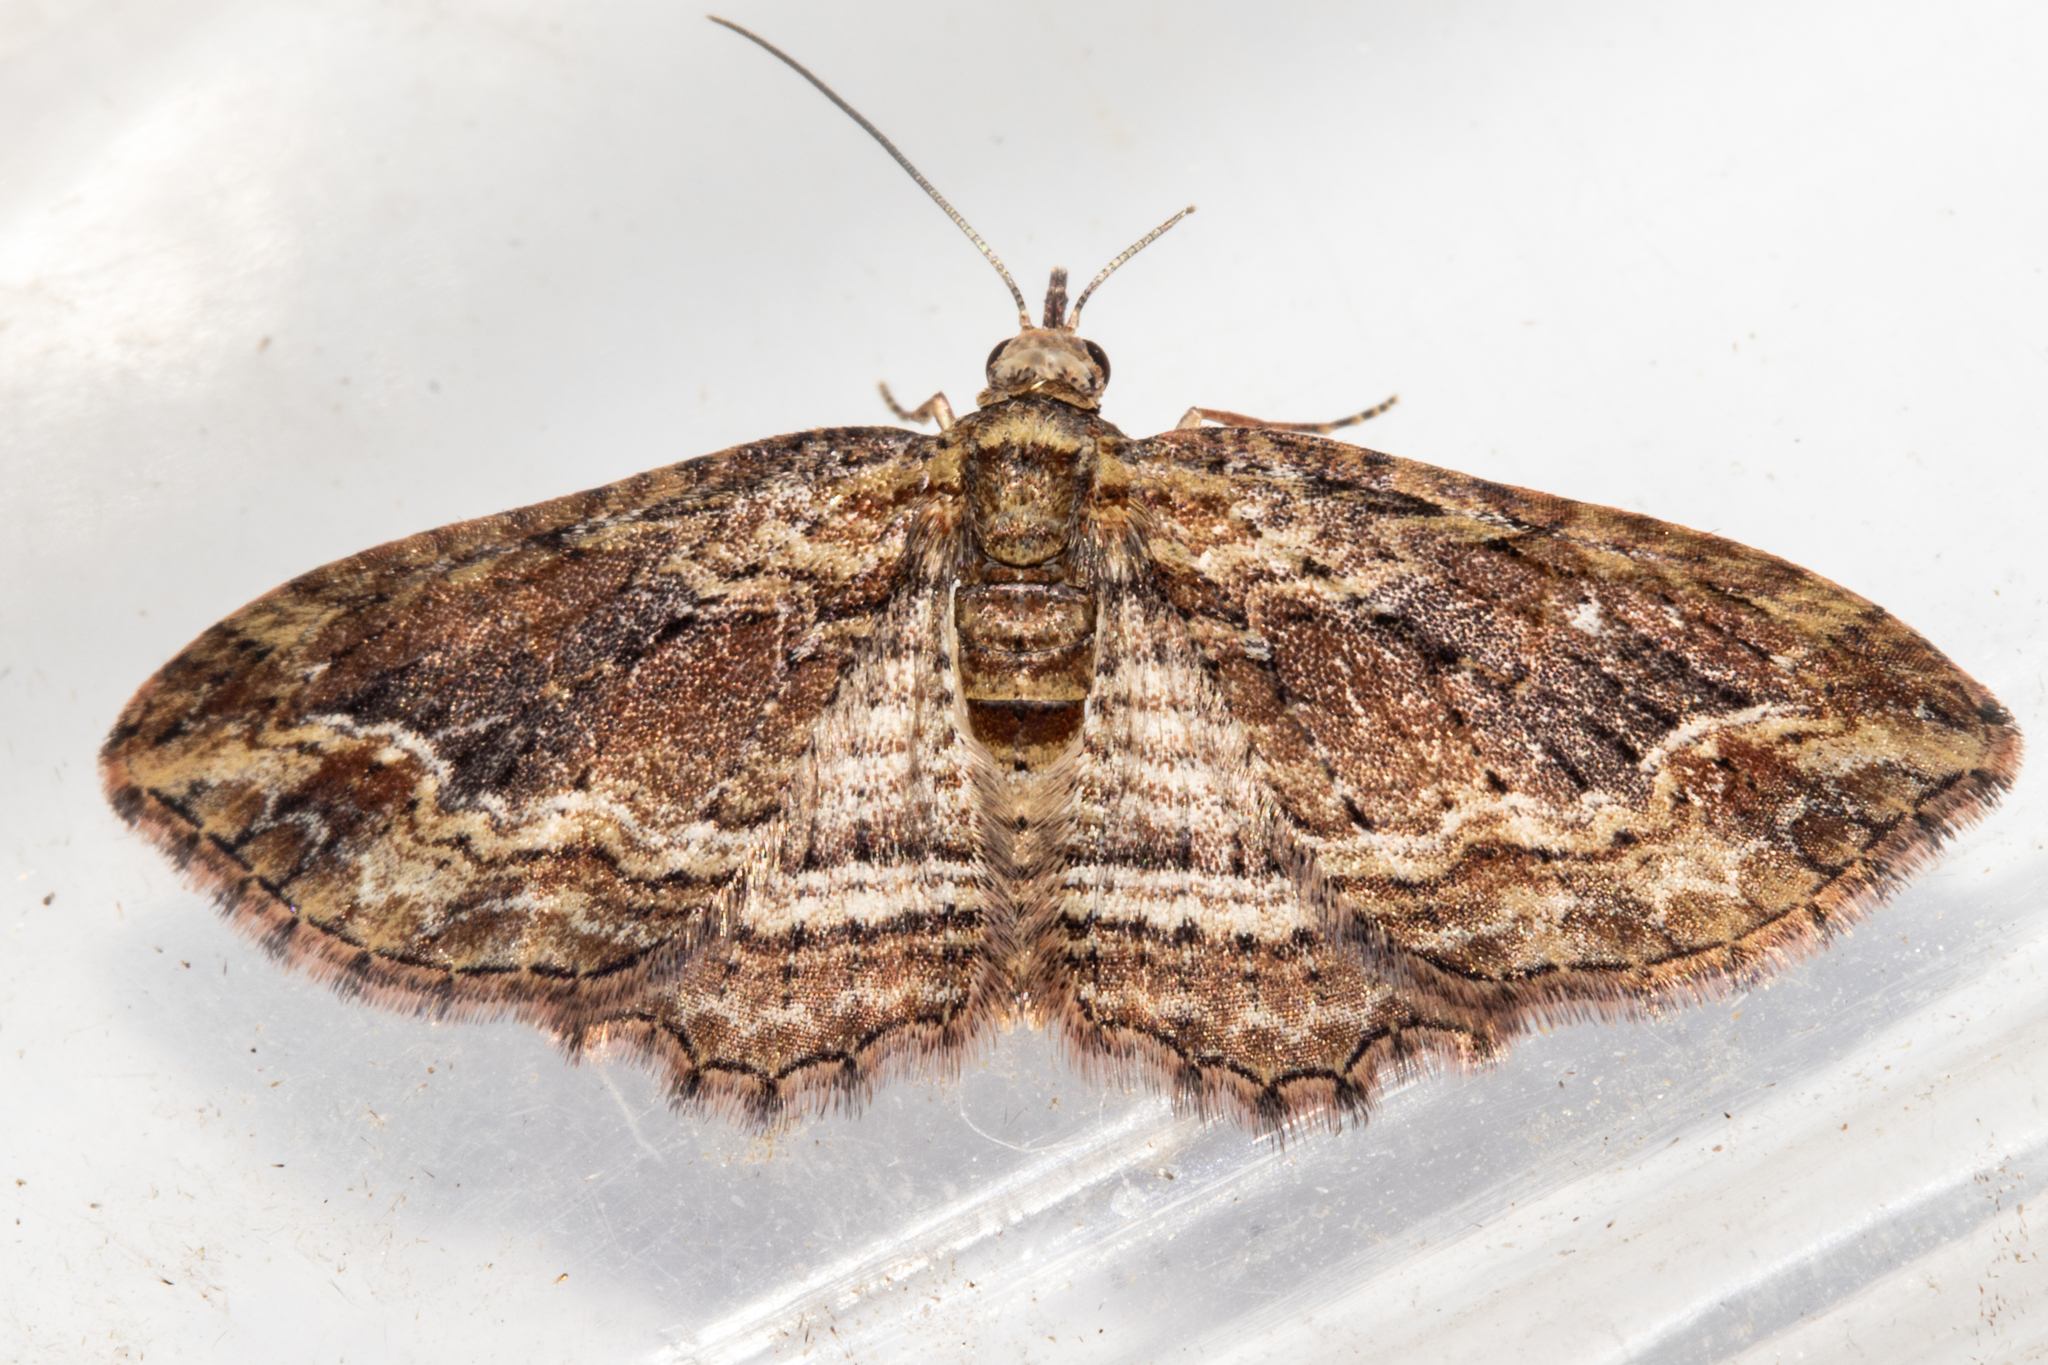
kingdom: Animalia
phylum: Arthropoda
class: Insecta
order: Lepidoptera
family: Geometridae
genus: Chloroclystis
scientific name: Chloroclystis filata
